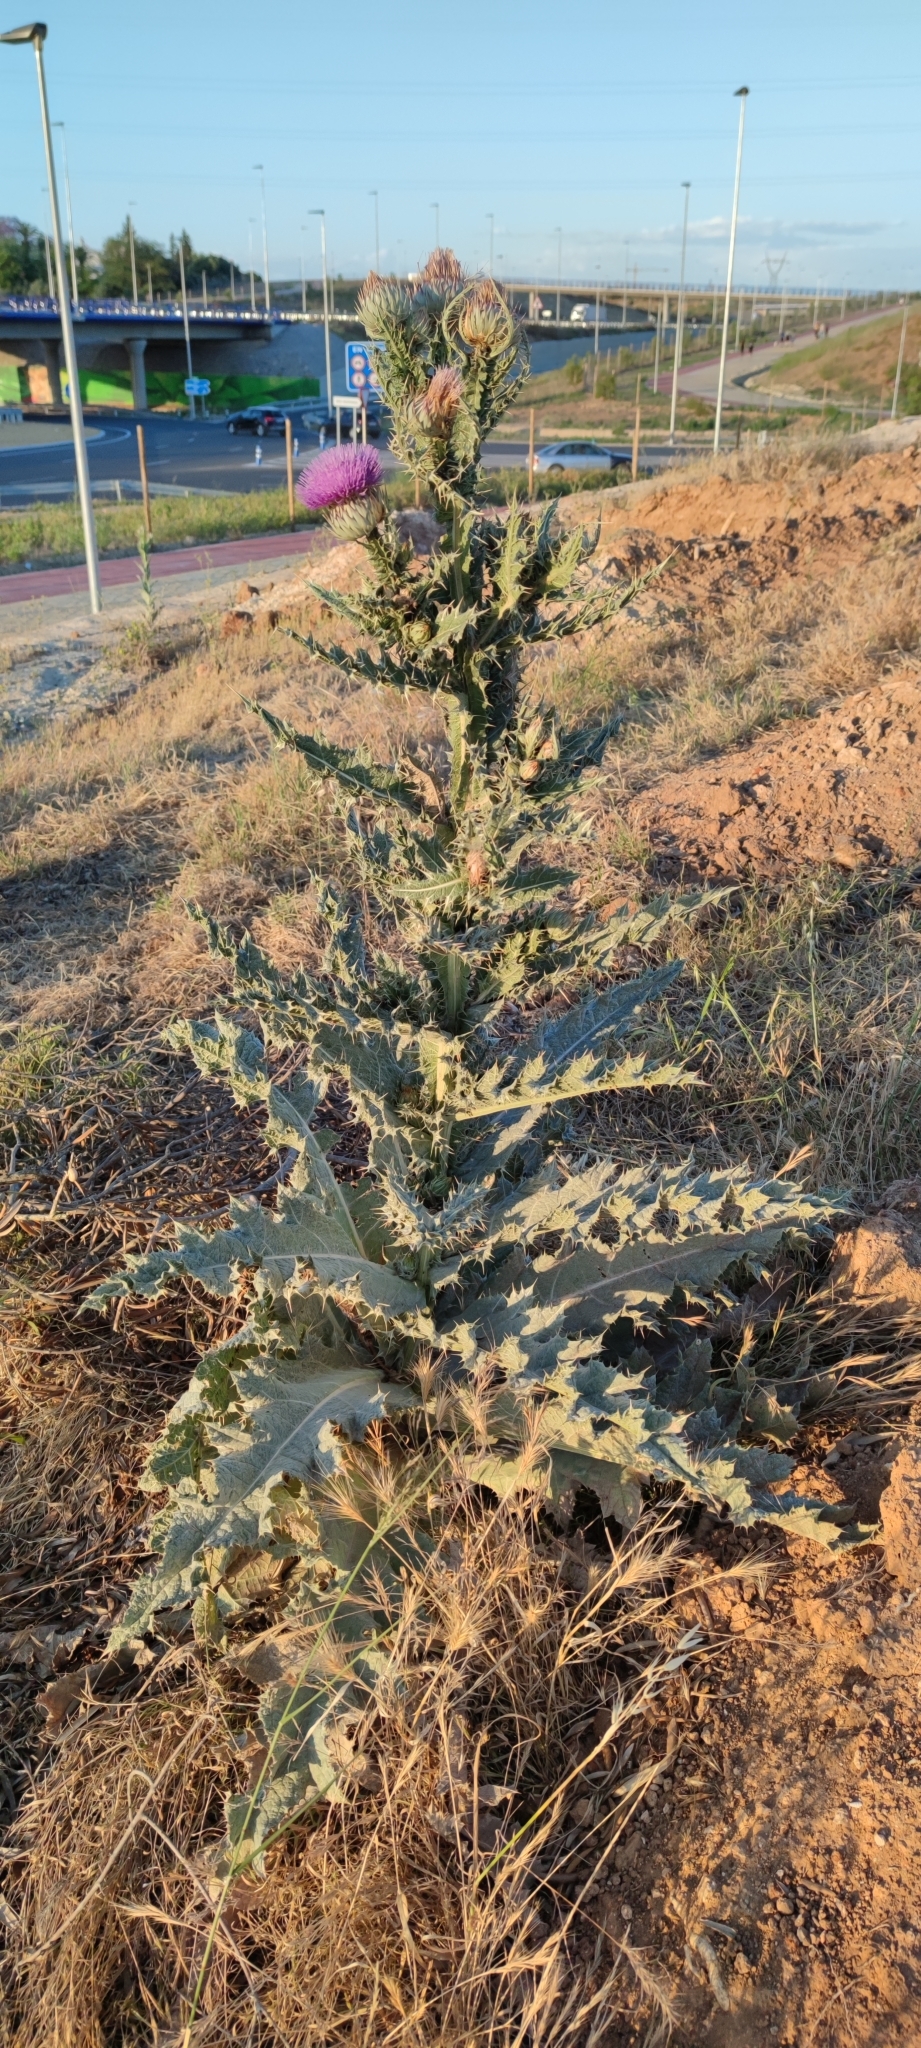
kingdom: Plantae
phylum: Tracheophyta
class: Magnoliopsida
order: Asterales
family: Asteraceae
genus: Onopordum
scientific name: Onopordum nervosum
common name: Reticulate thistle
